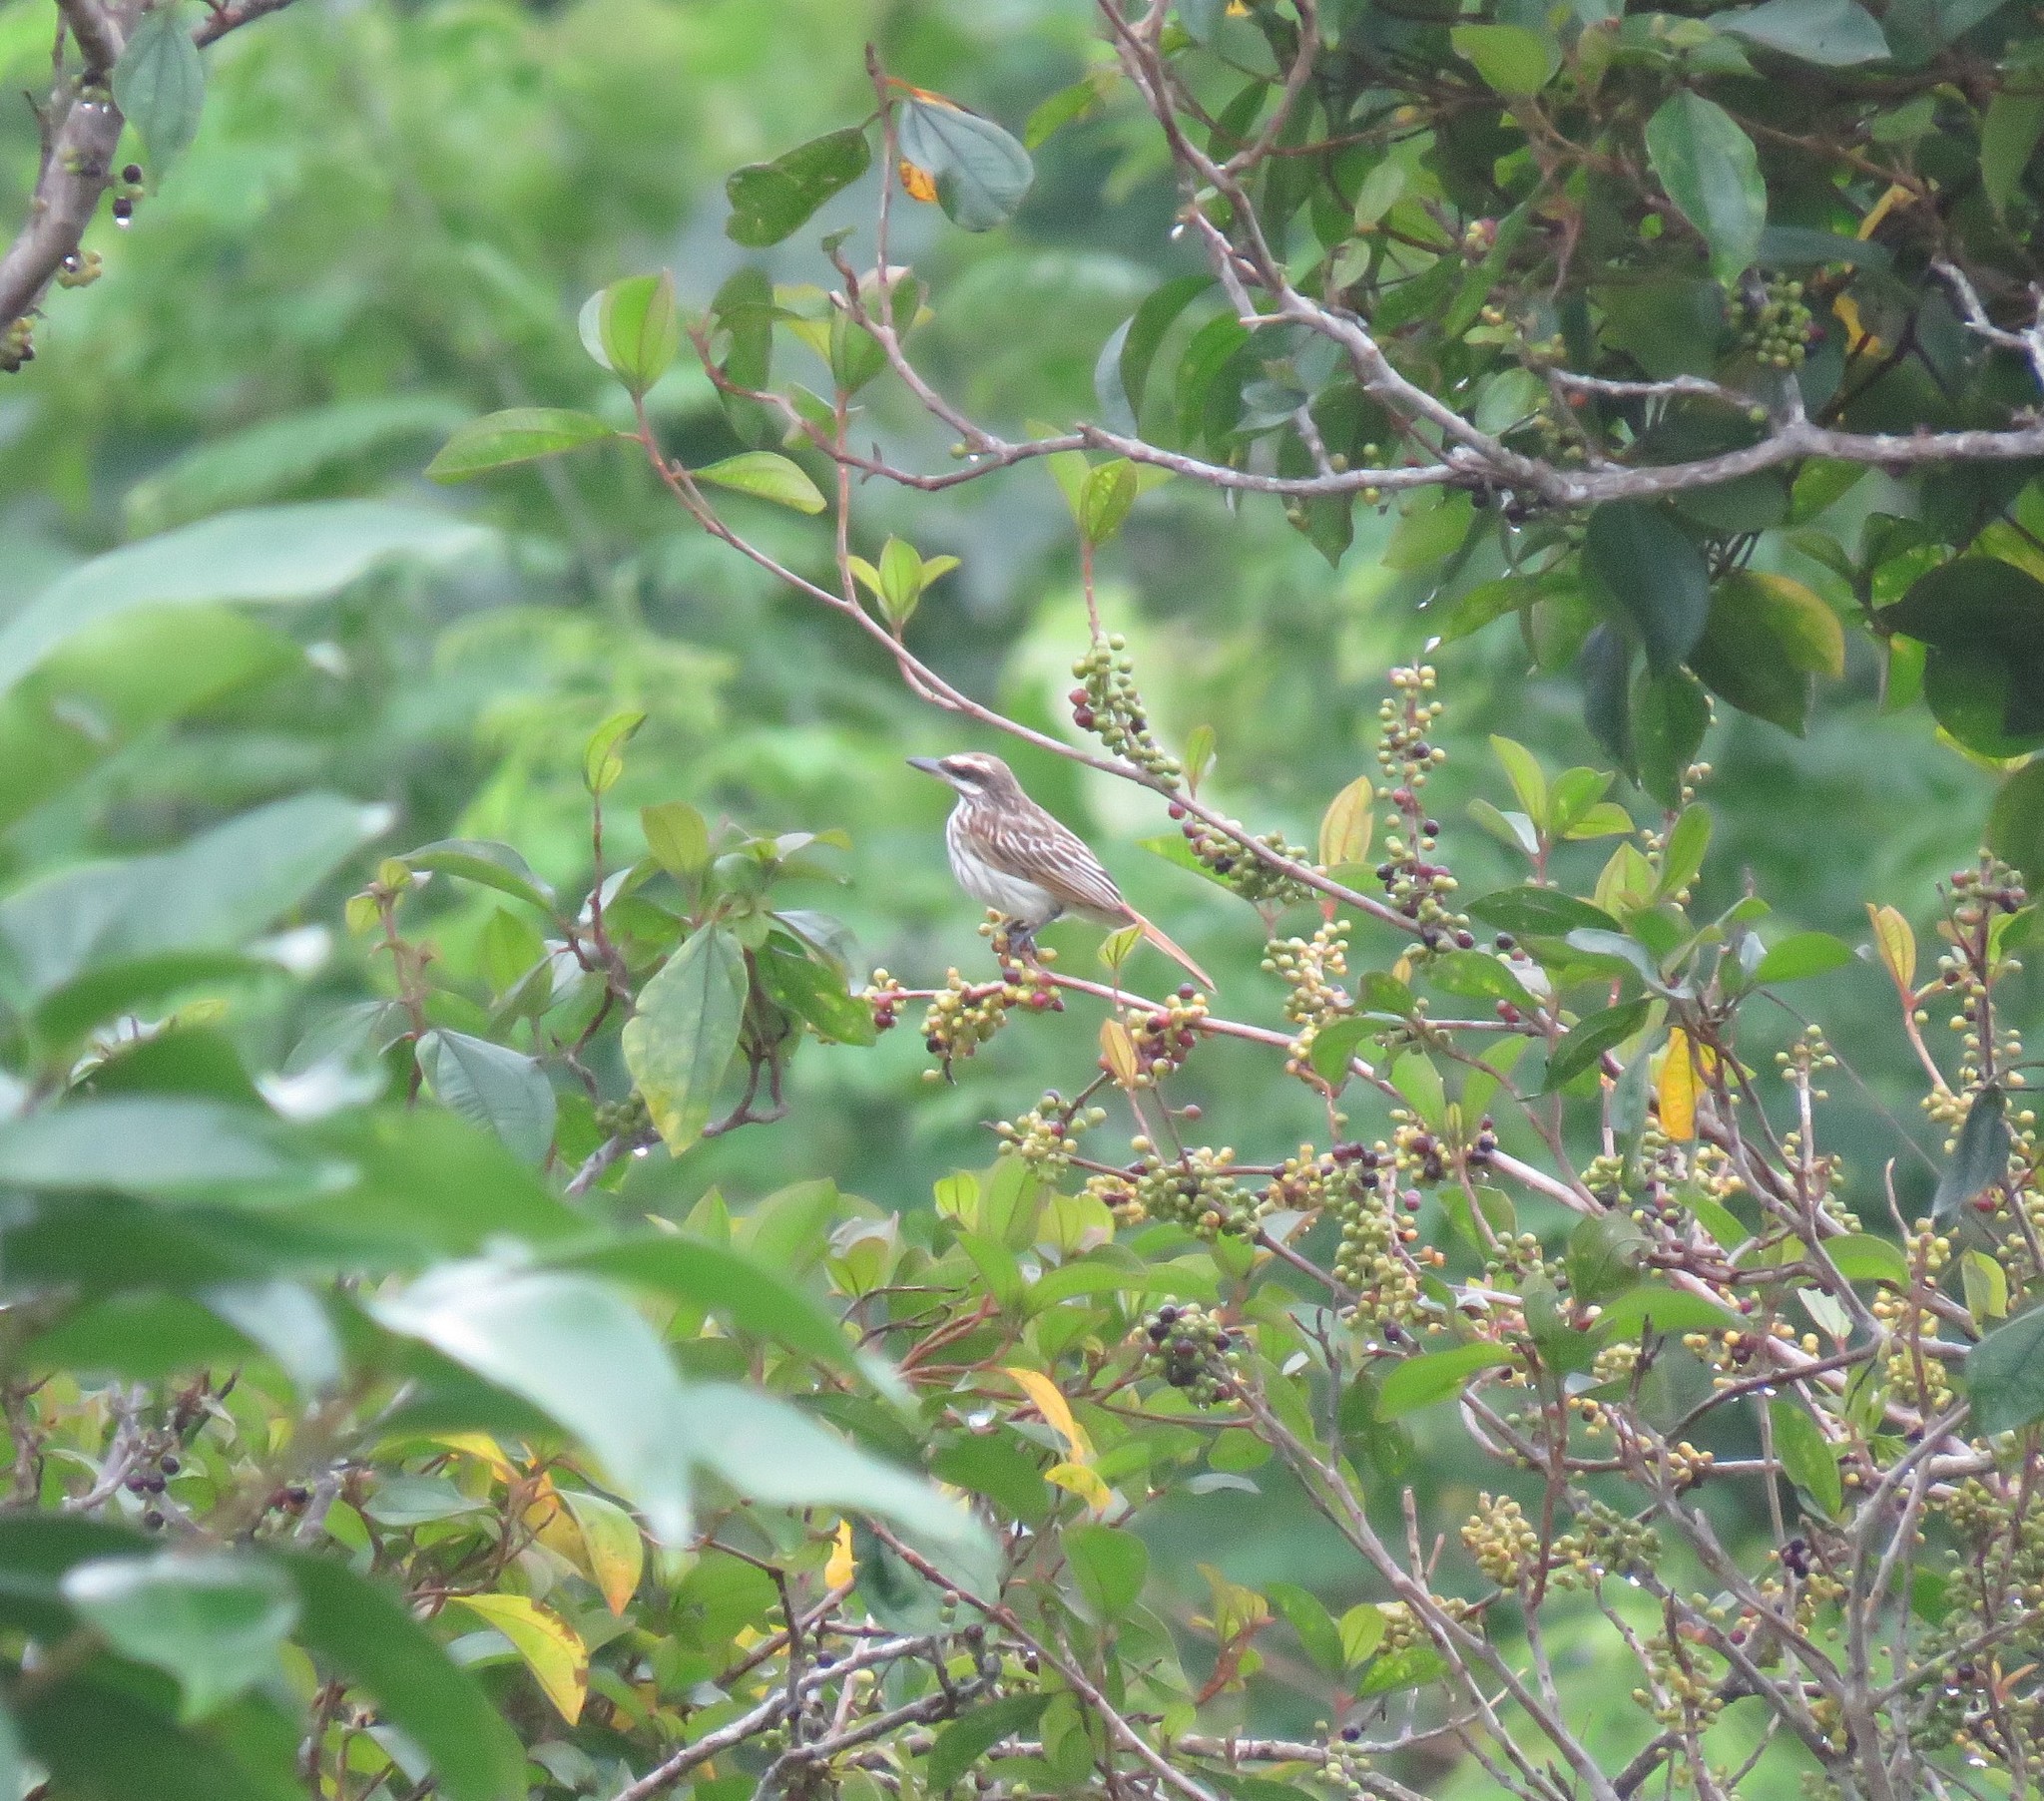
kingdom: Animalia
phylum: Chordata
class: Aves
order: Passeriformes
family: Tyrannidae
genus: Myiodynastes
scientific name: Myiodynastes maculatus
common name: Streaked flycatcher
